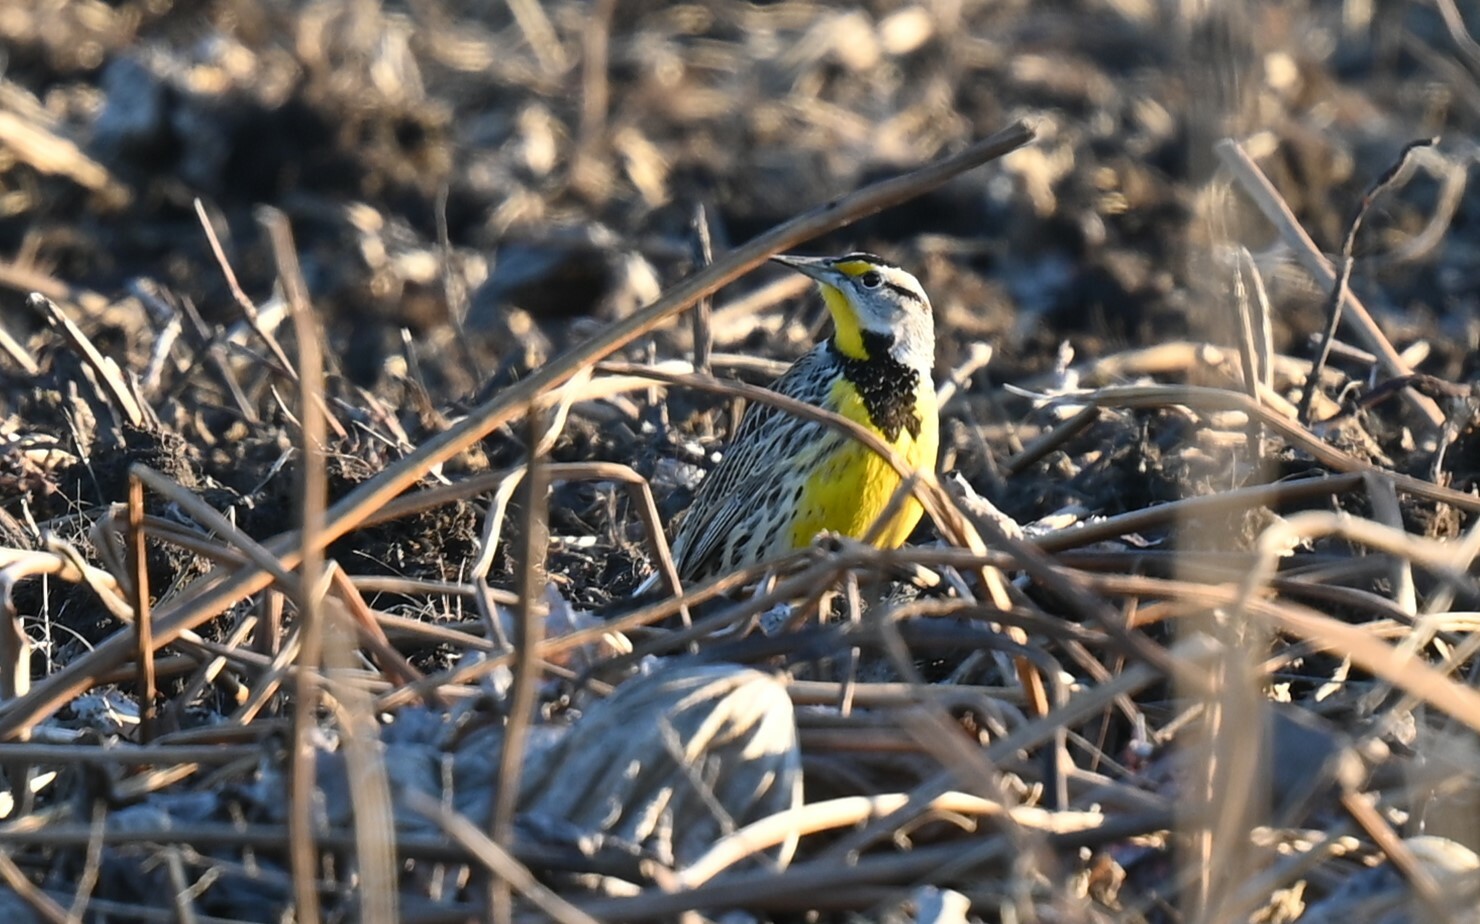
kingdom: Animalia
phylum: Chordata
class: Aves
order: Passeriformes
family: Icteridae
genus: Sturnella
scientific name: Sturnella magna
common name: Eastern meadowlark
